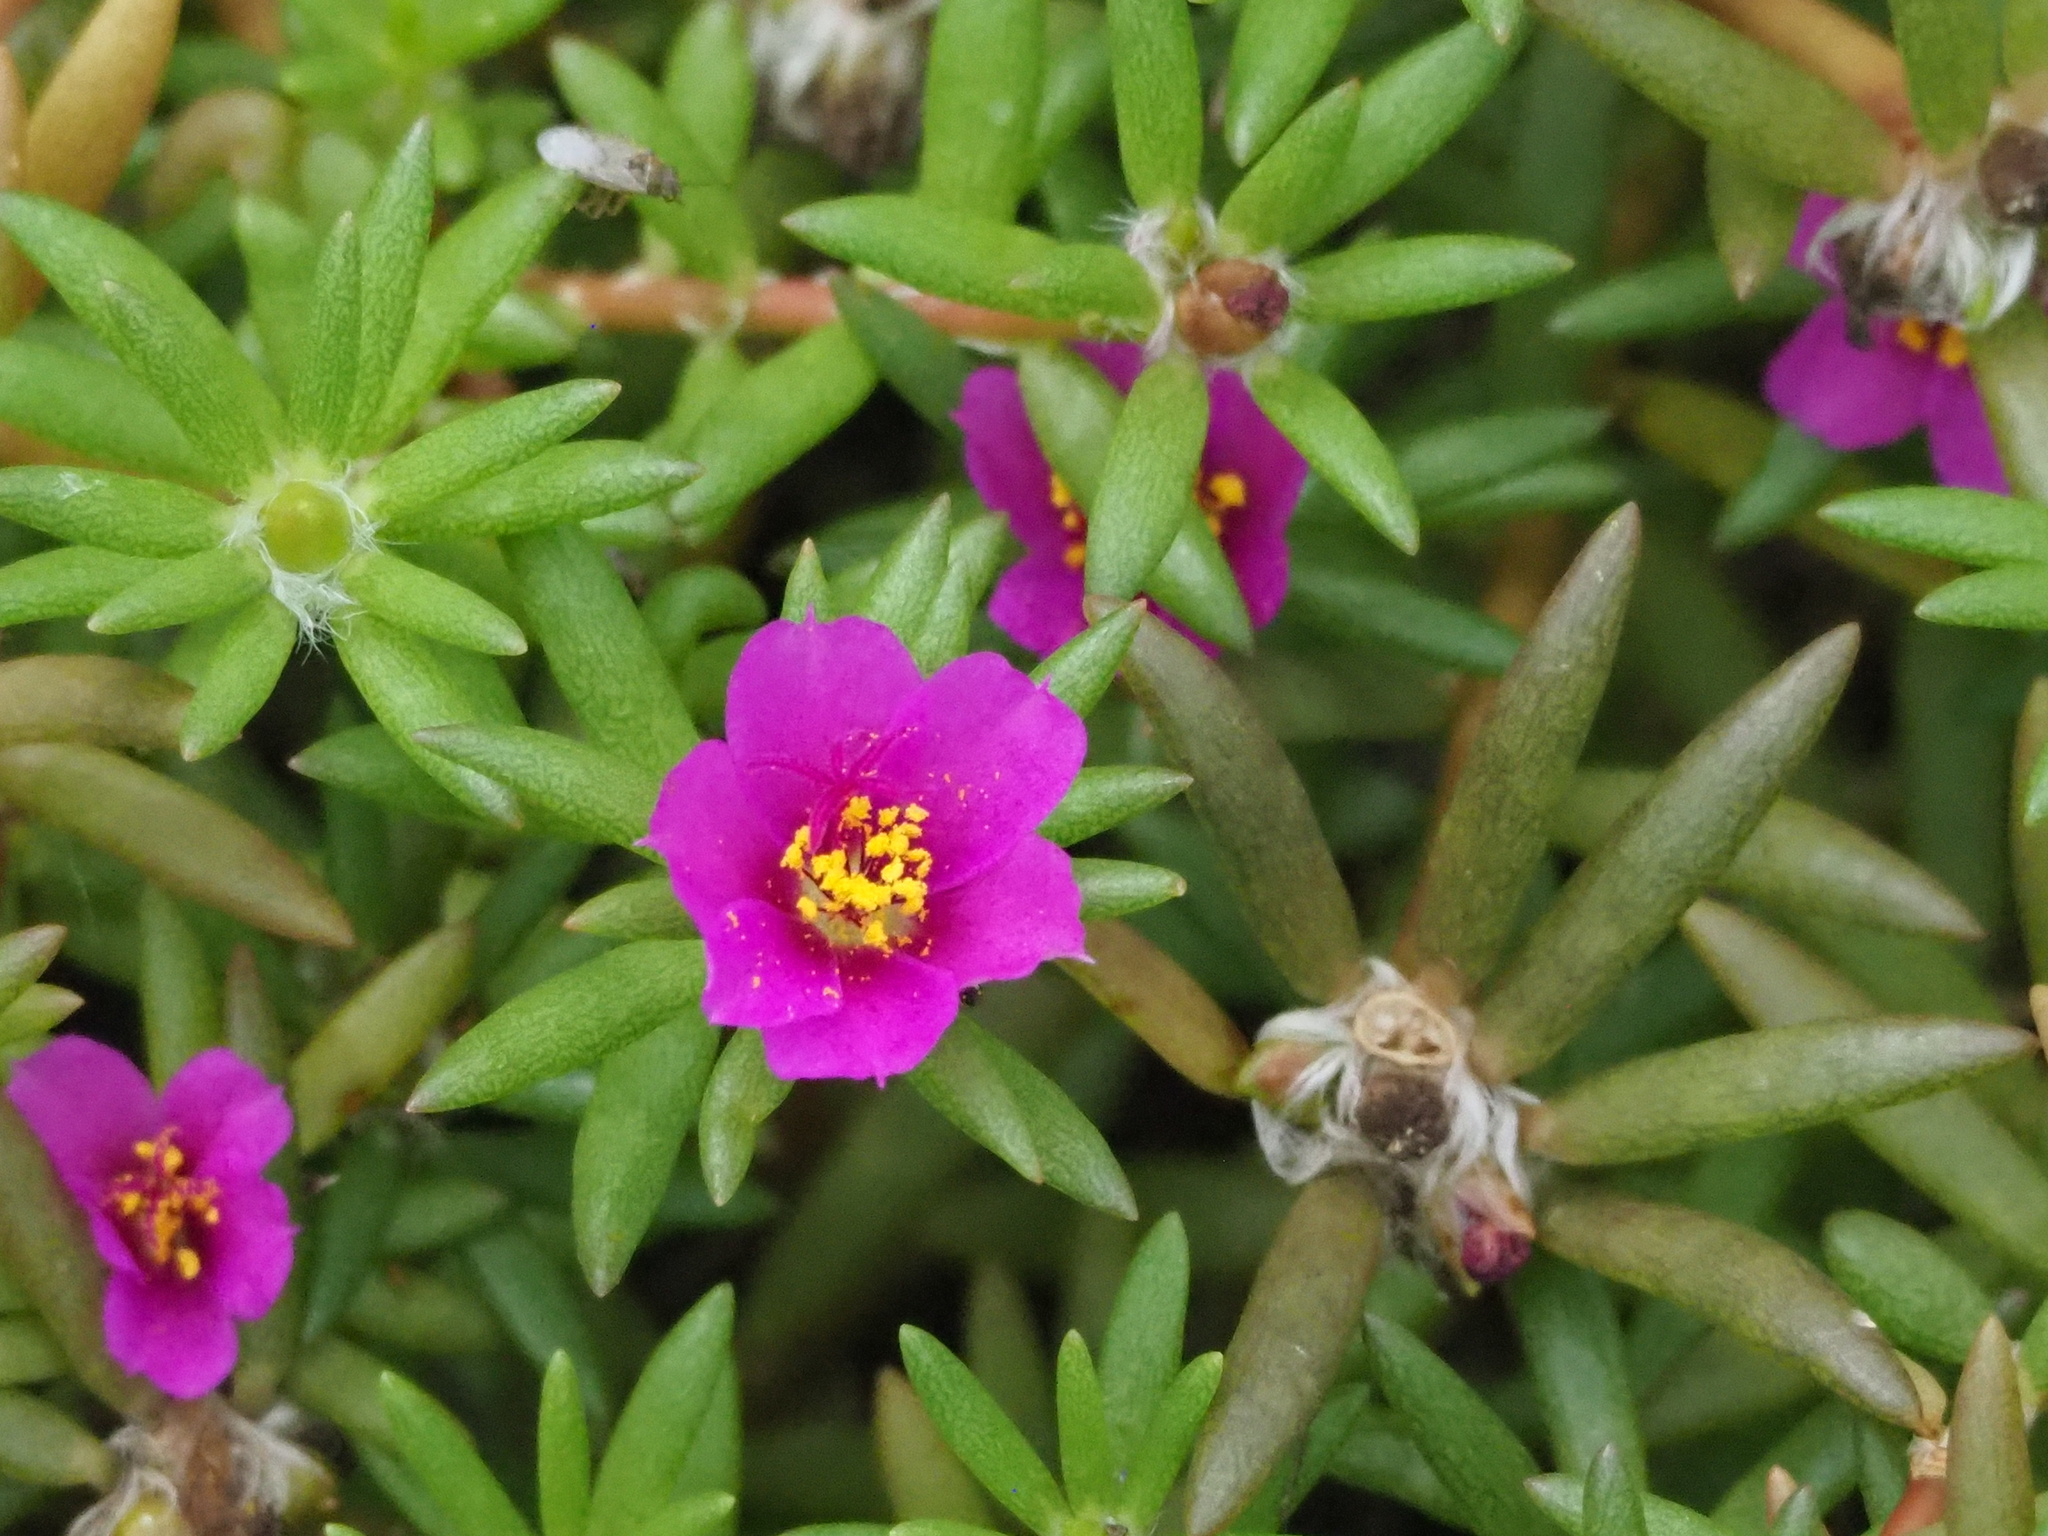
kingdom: Plantae
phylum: Tracheophyta
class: Magnoliopsida
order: Caryophyllales
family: Portulacaceae
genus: Portulaca
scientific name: Portulaca pilosa
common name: Kiss me quick
